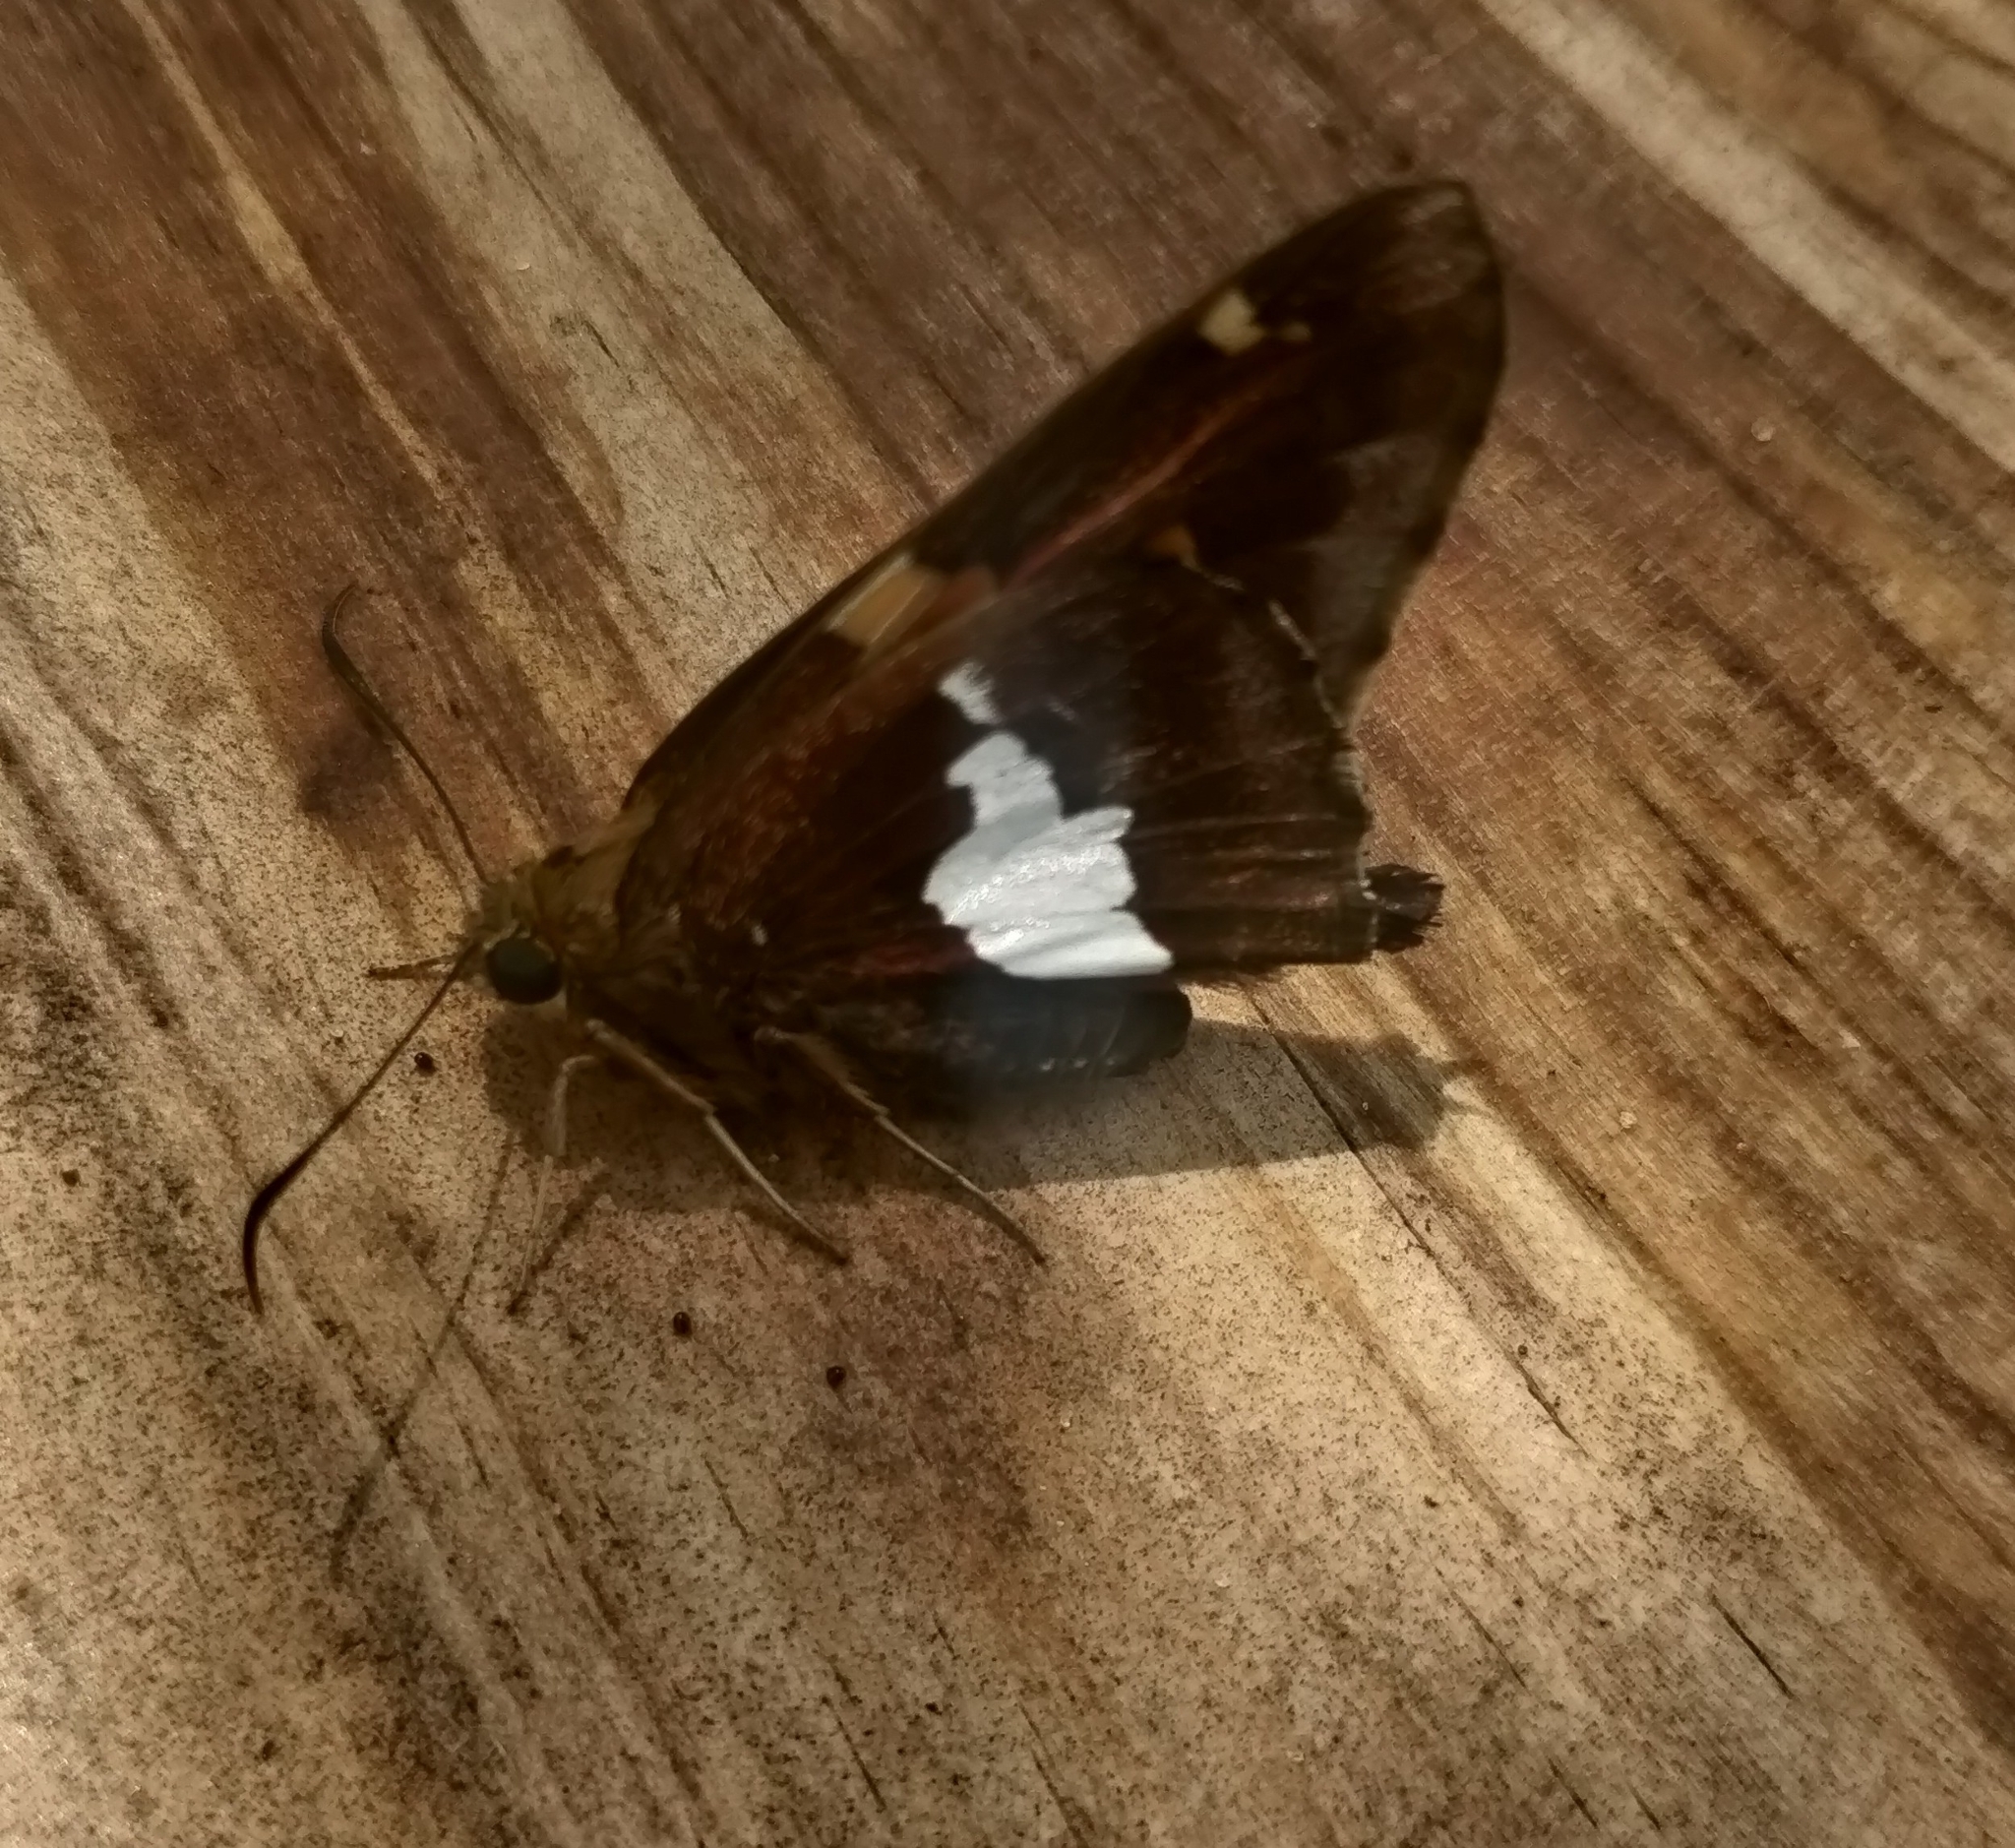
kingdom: Animalia
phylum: Arthropoda
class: Insecta
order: Lepidoptera
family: Hesperiidae
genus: Epargyreus
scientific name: Epargyreus clarus
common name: Silver-spotted skipper
